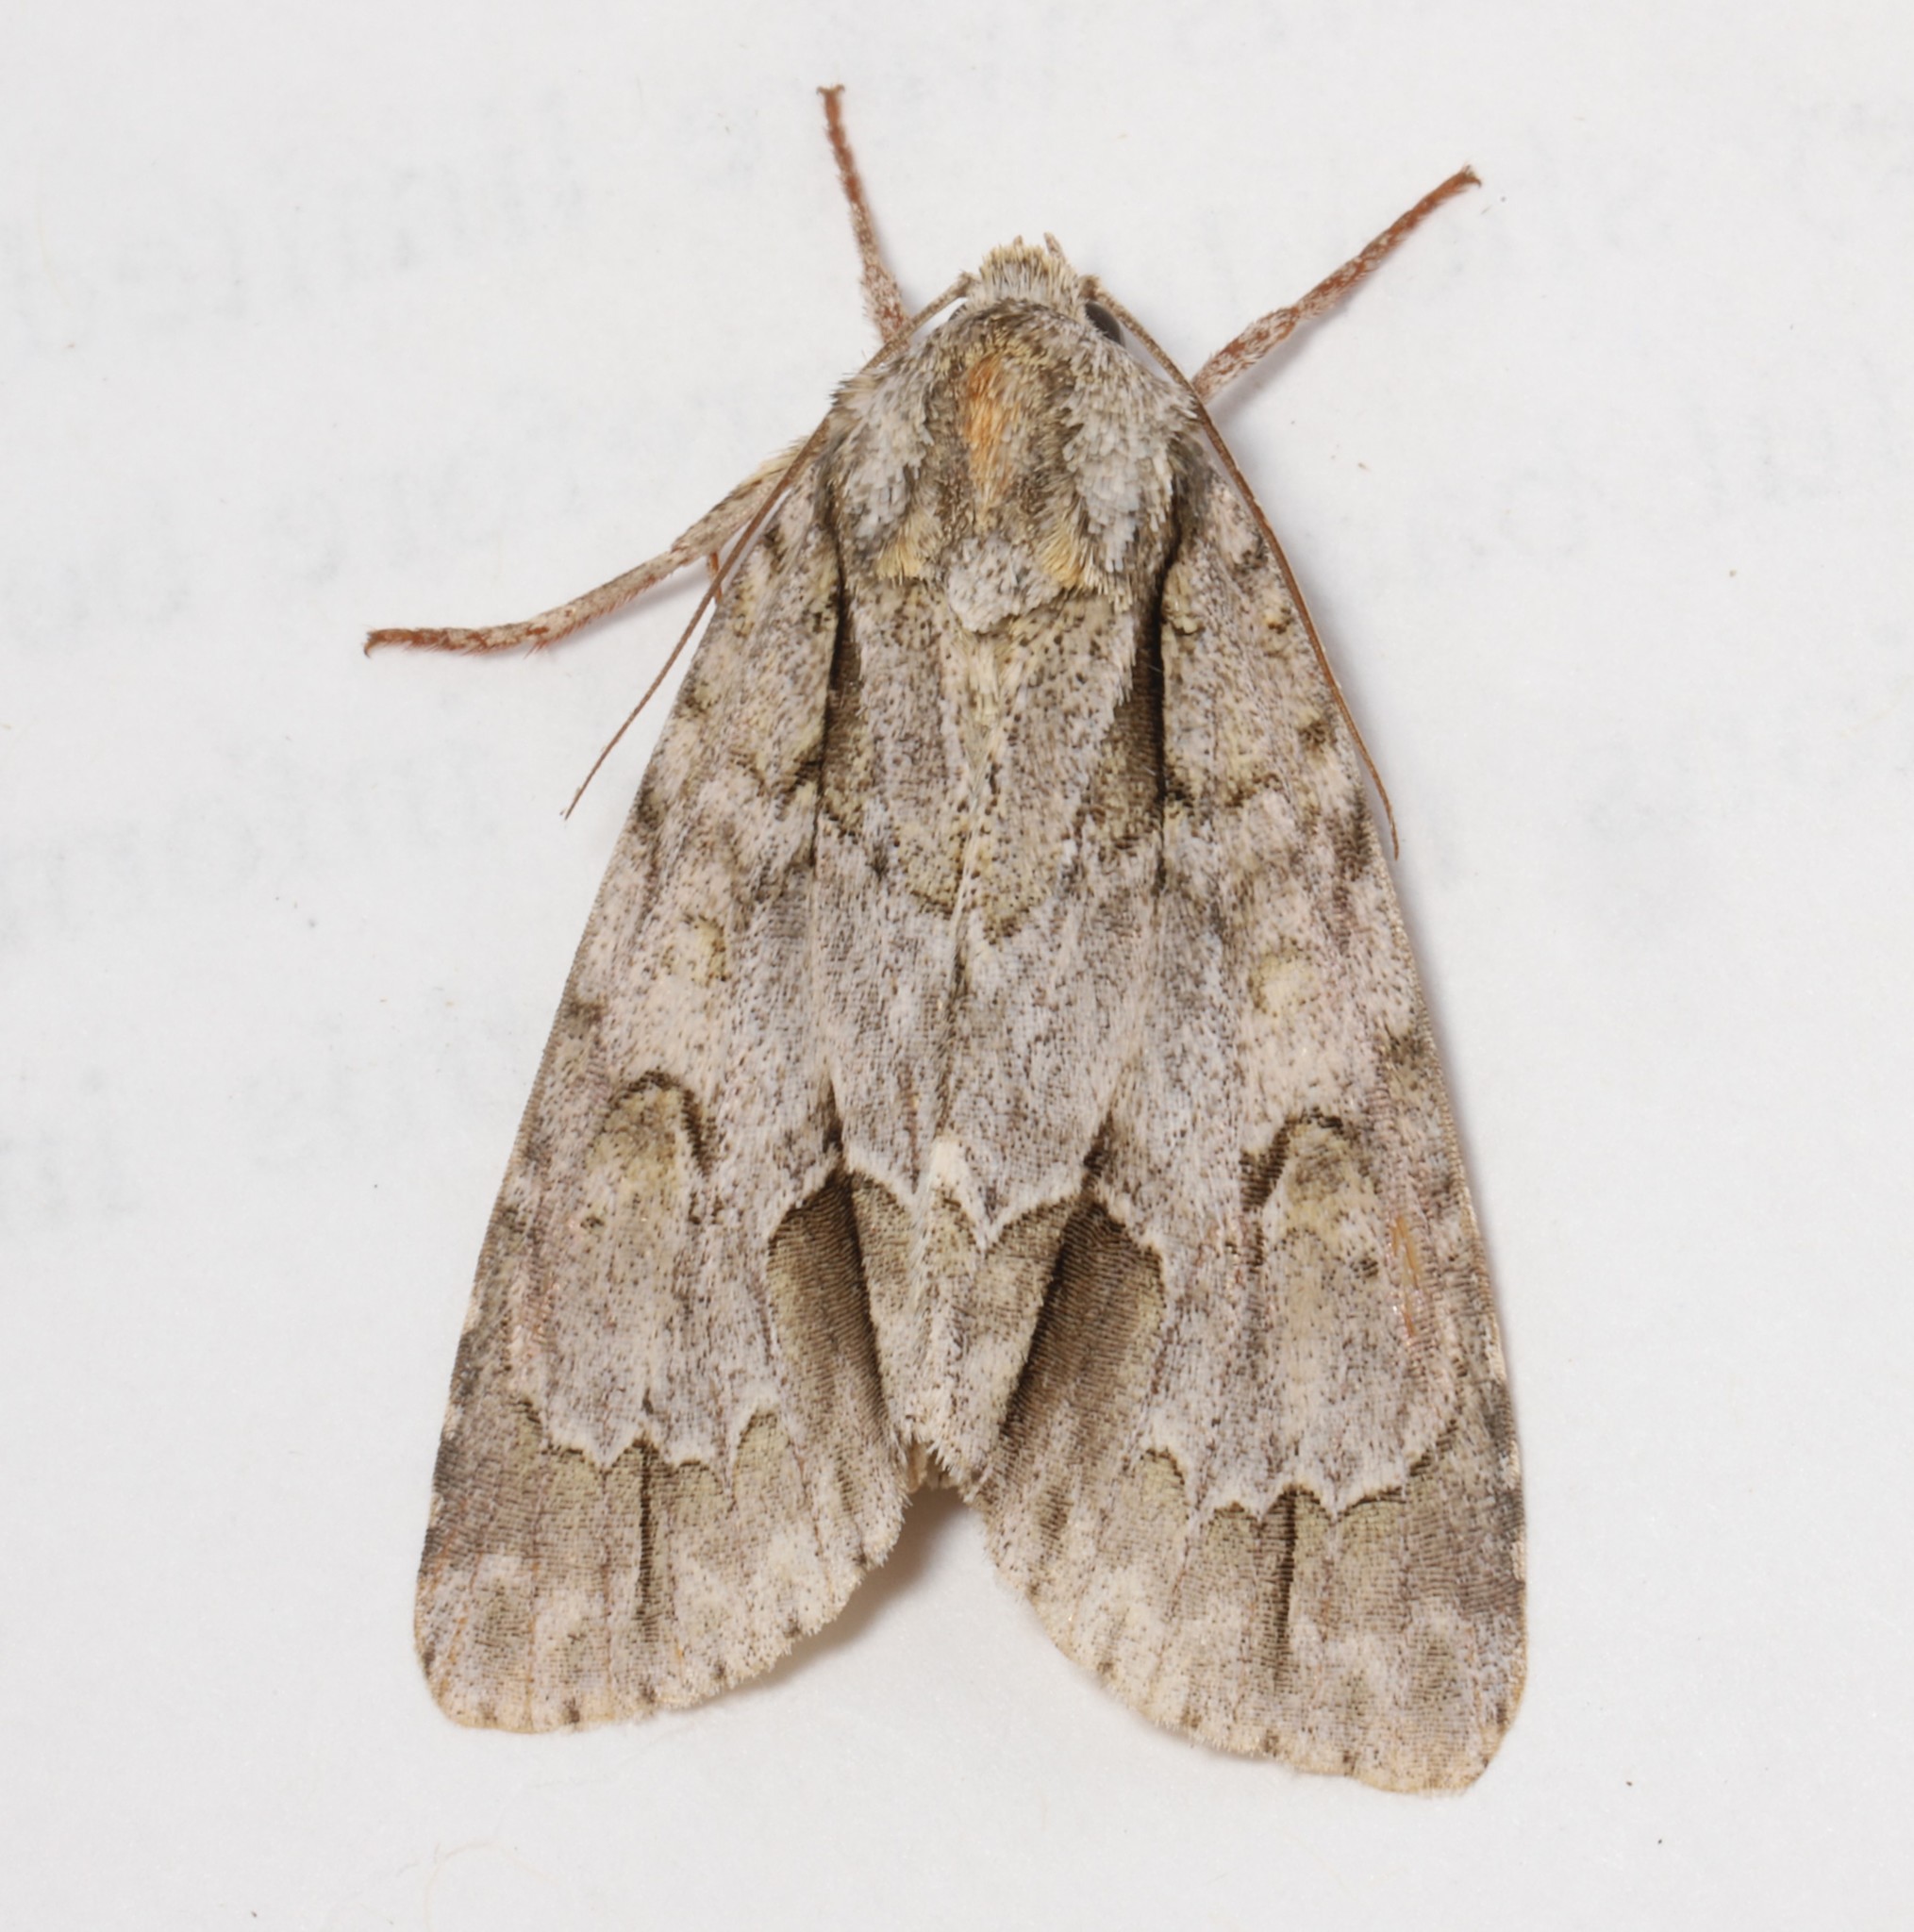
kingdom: Animalia
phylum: Arthropoda
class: Insecta
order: Lepidoptera
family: Noctuidae
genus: Acronicta
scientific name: Acronicta morula
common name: Ochre dagger
